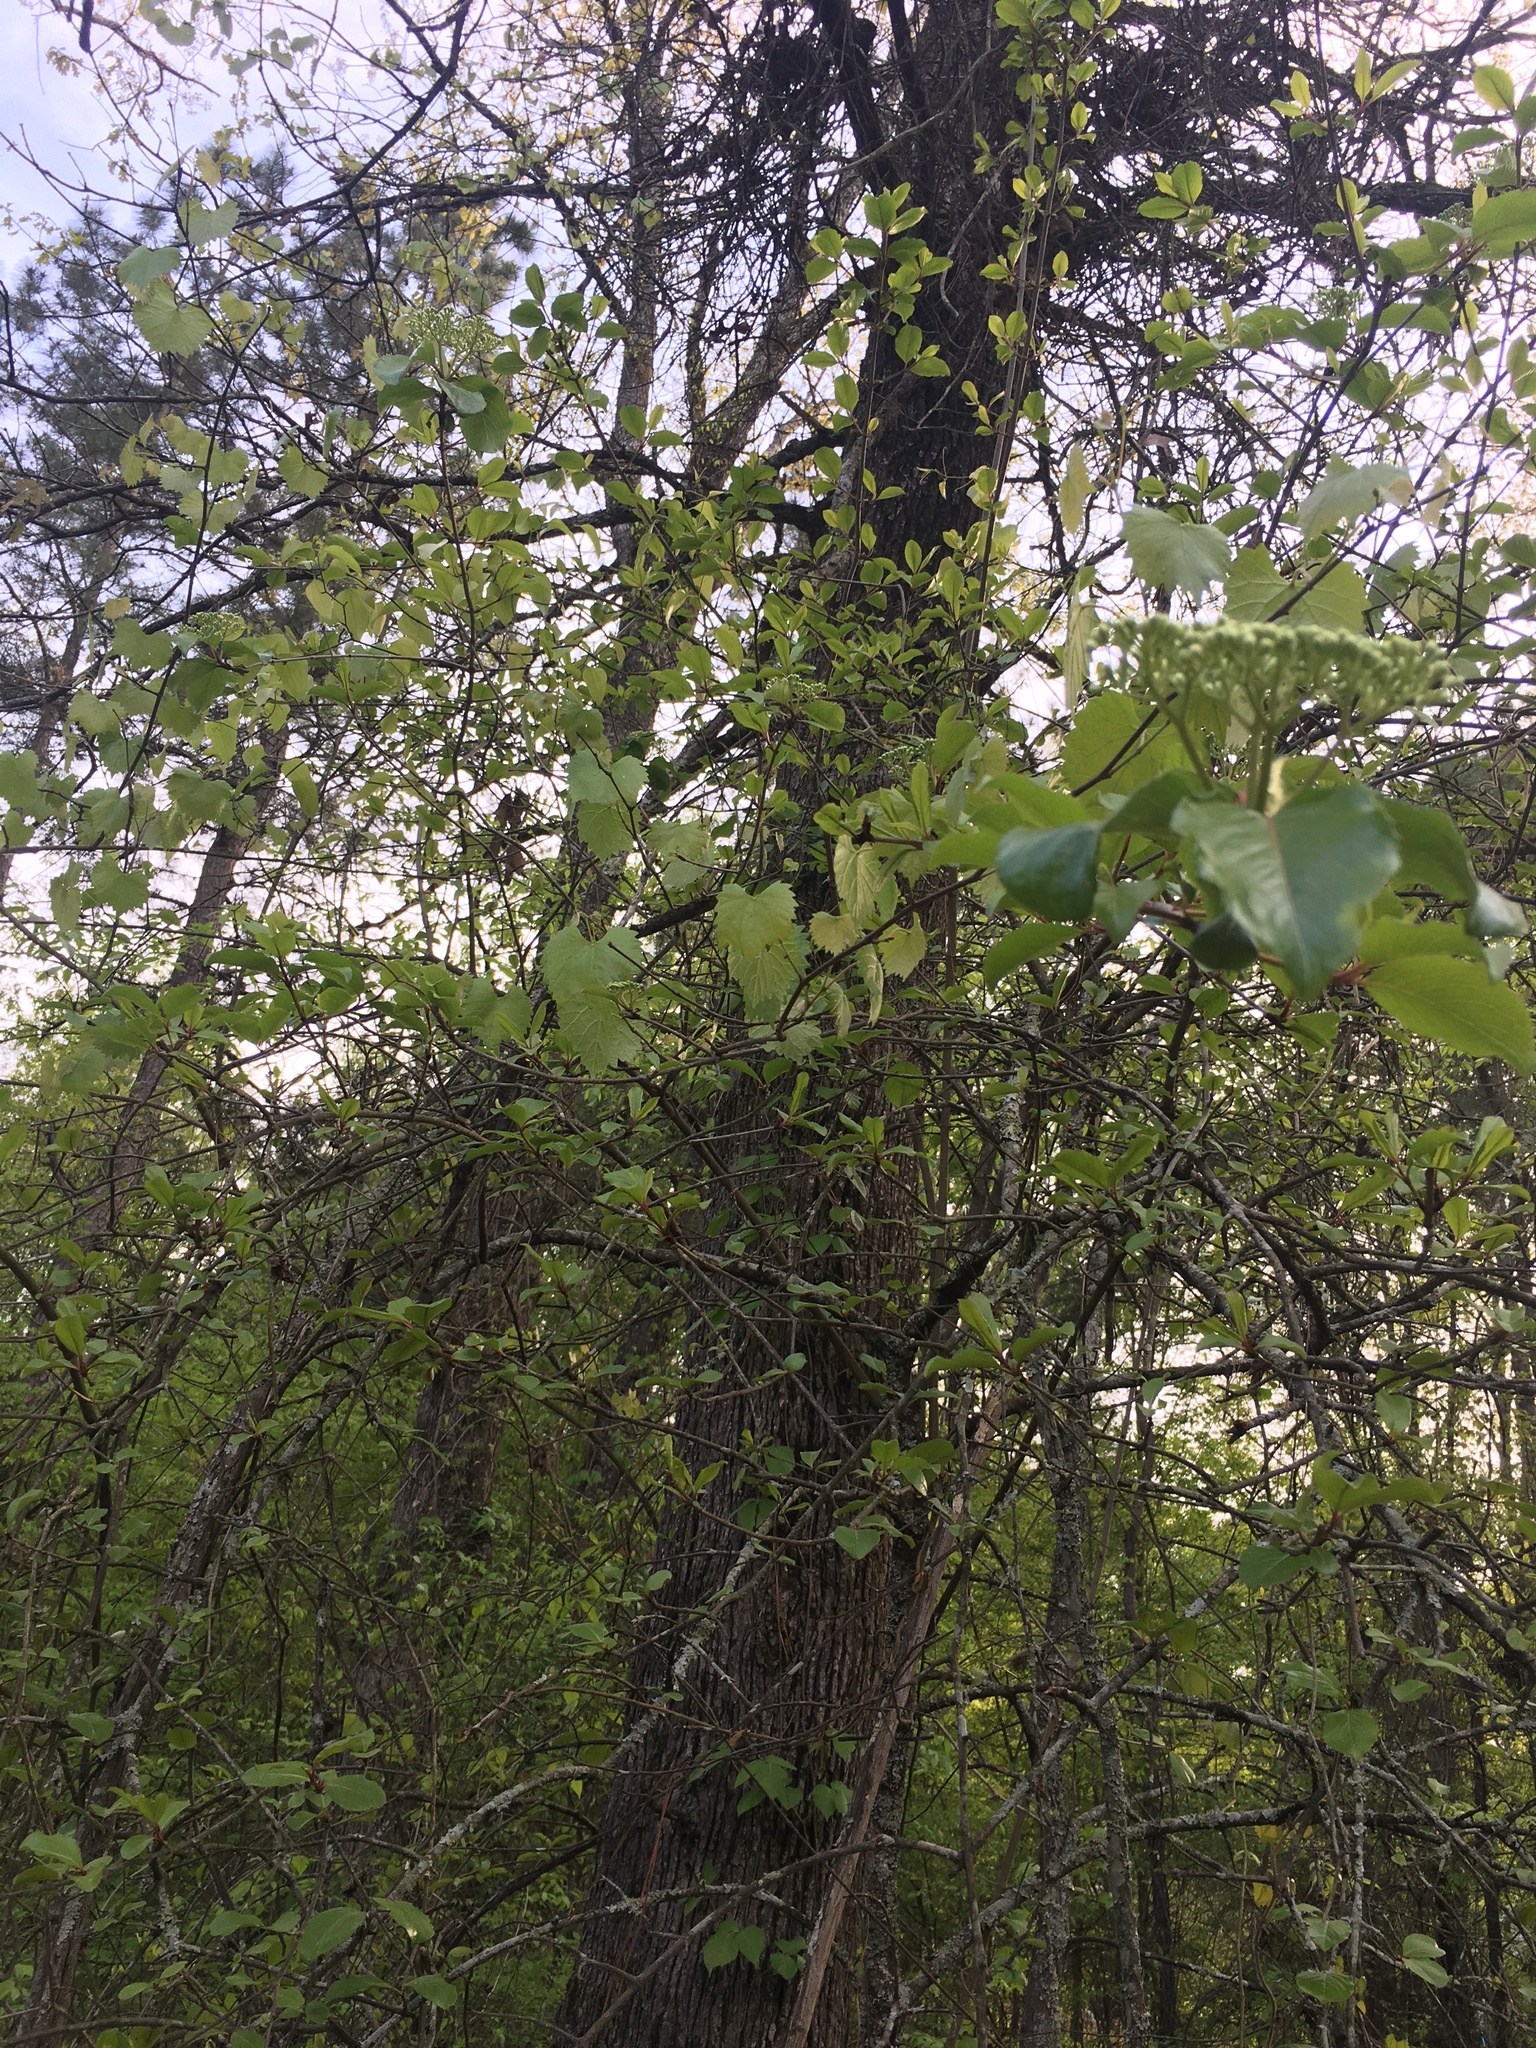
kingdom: Plantae
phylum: Tracheophyta
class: Magnoliopsida
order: Vitales
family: Vitaceae
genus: Vitis
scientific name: Vitis rotundifolia
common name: Muscadine grape
